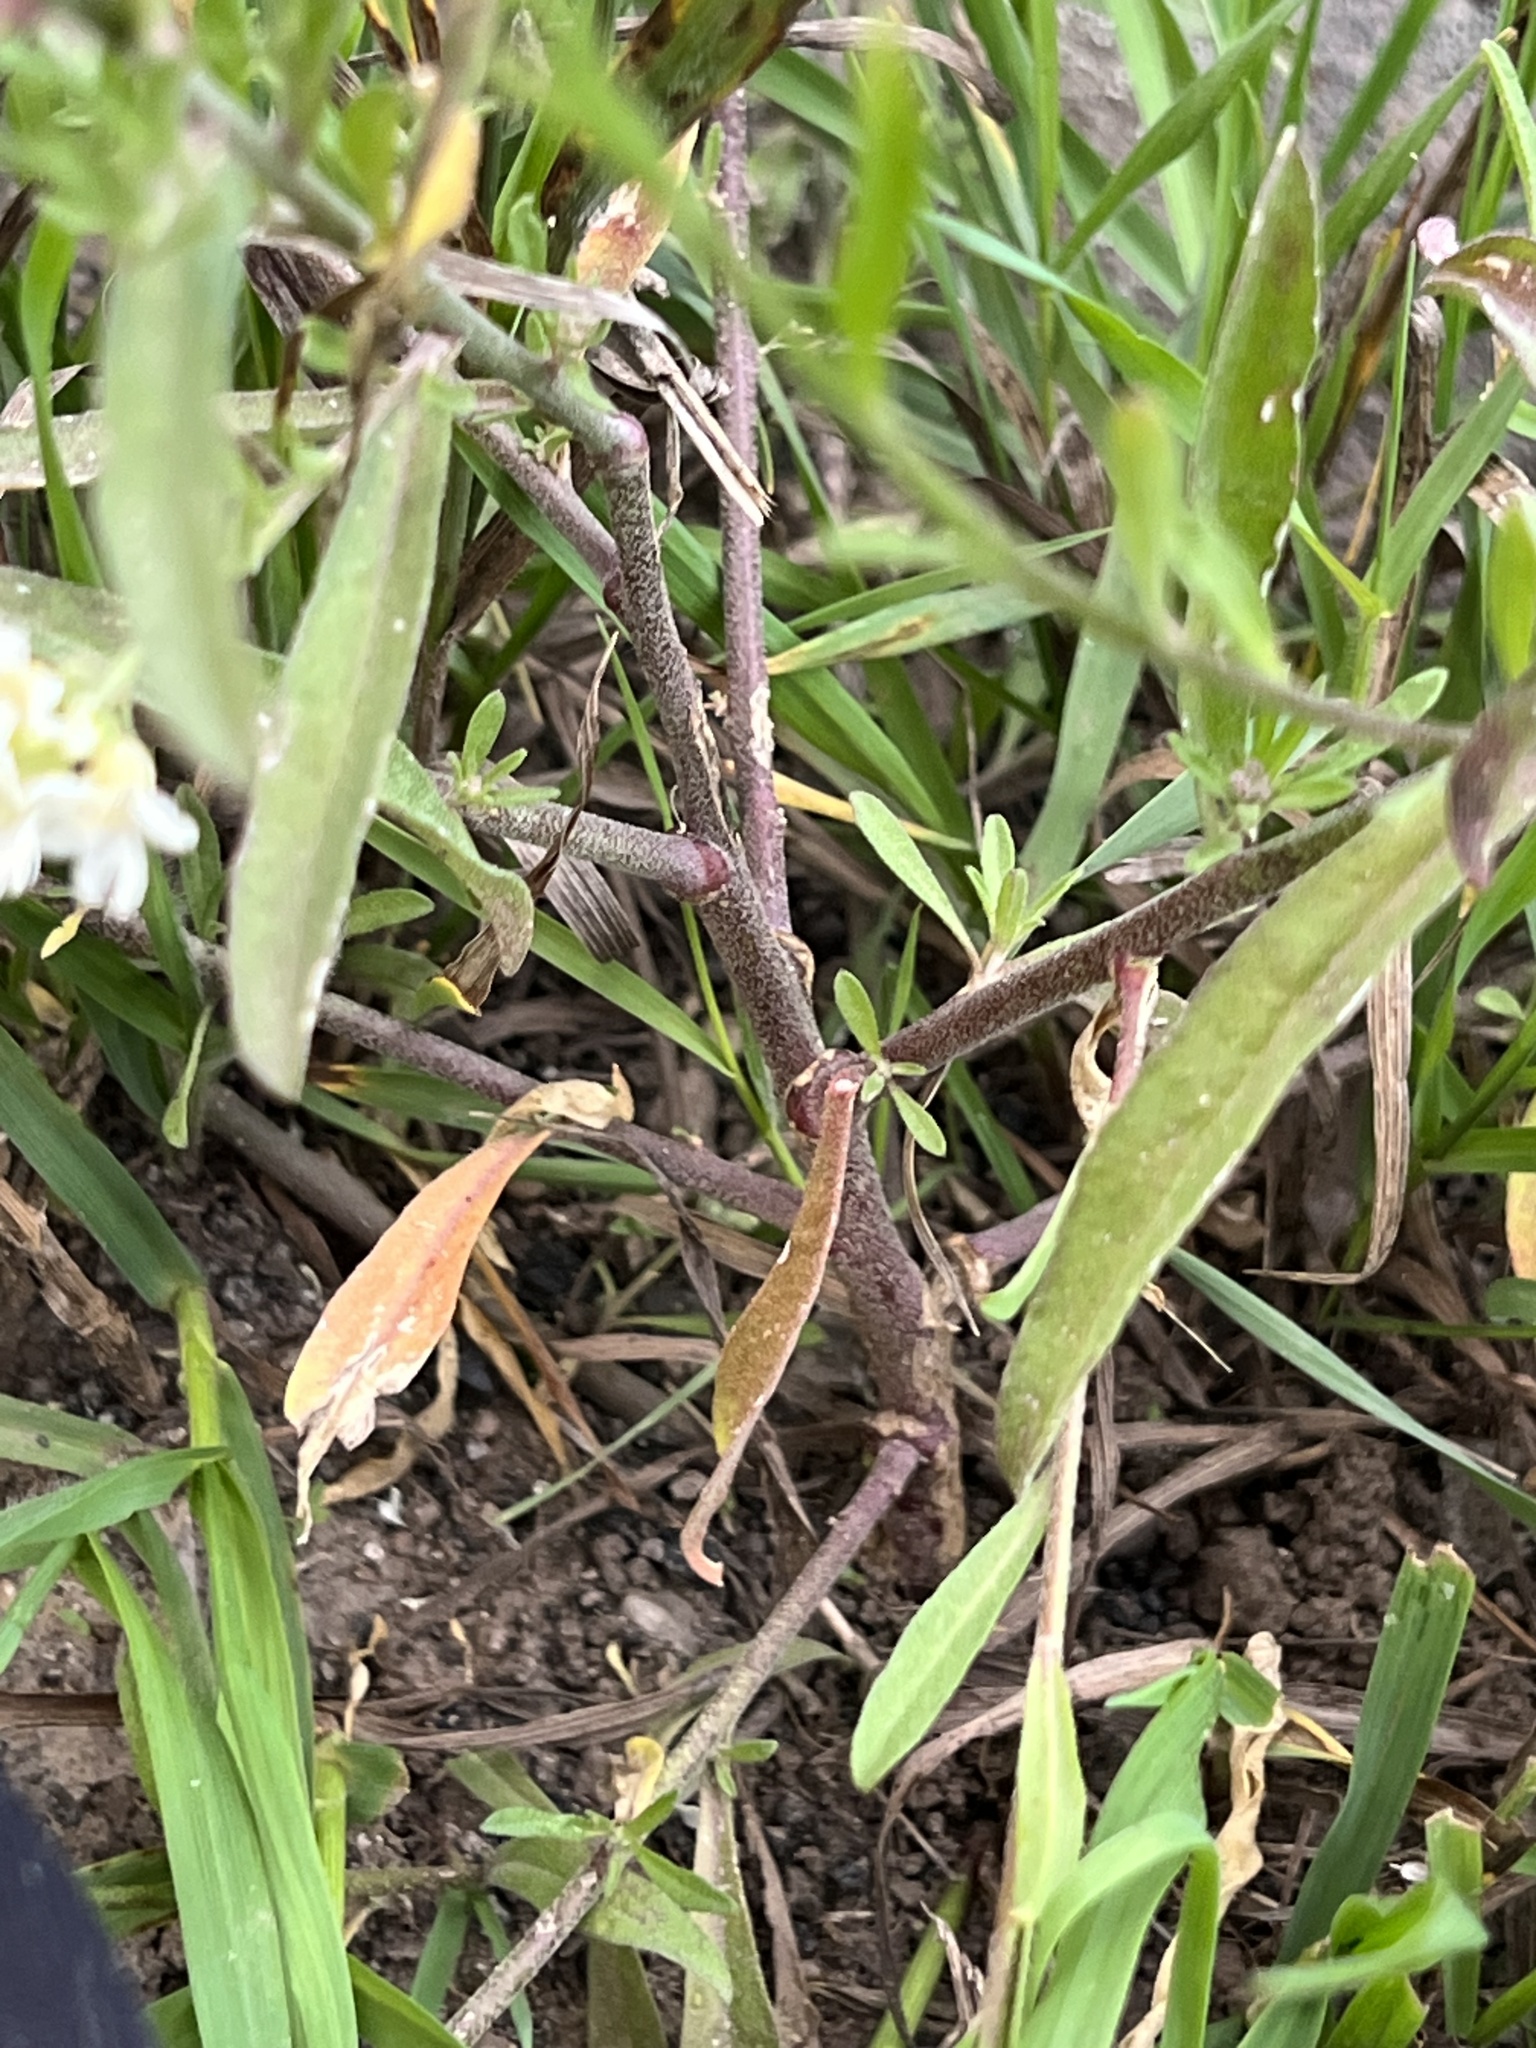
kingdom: Plantae
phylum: Tracheophyta
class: Magnoliopsida
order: Brassicales
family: Brassicaceae
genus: Berteroa
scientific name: Berteroa incana
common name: Hoary alison
